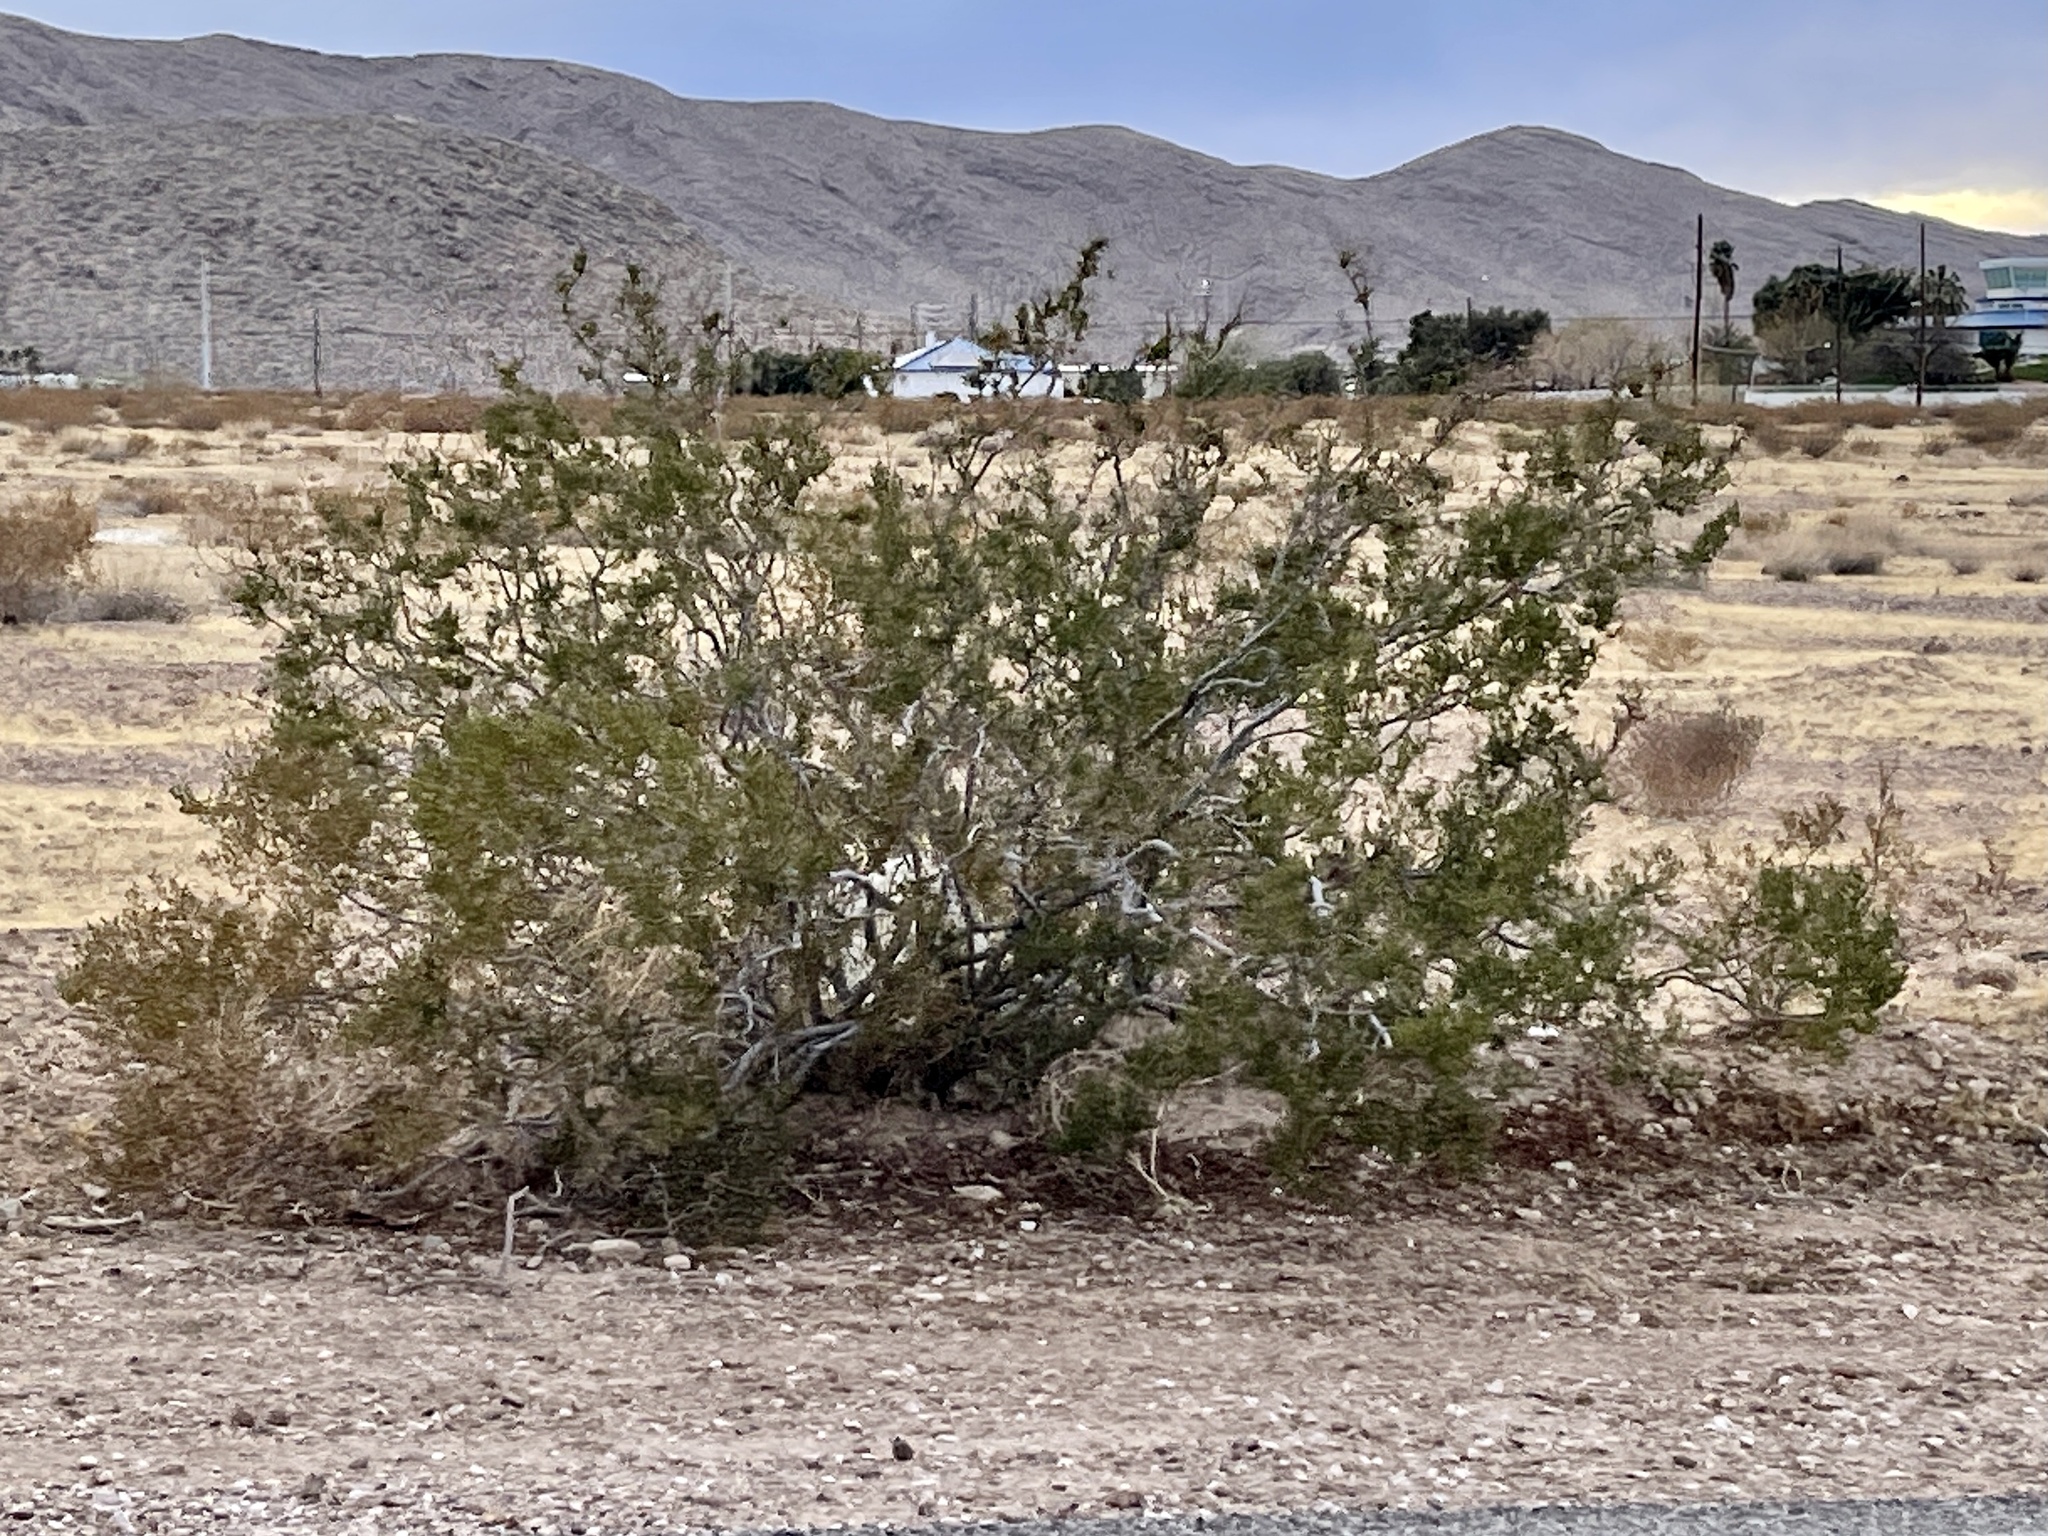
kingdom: Plantae
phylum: Tracheophyta
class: Magnoliopsida
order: Zygophyllales
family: Zygophyllaceae
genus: Larrea
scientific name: Larrea tridentata
